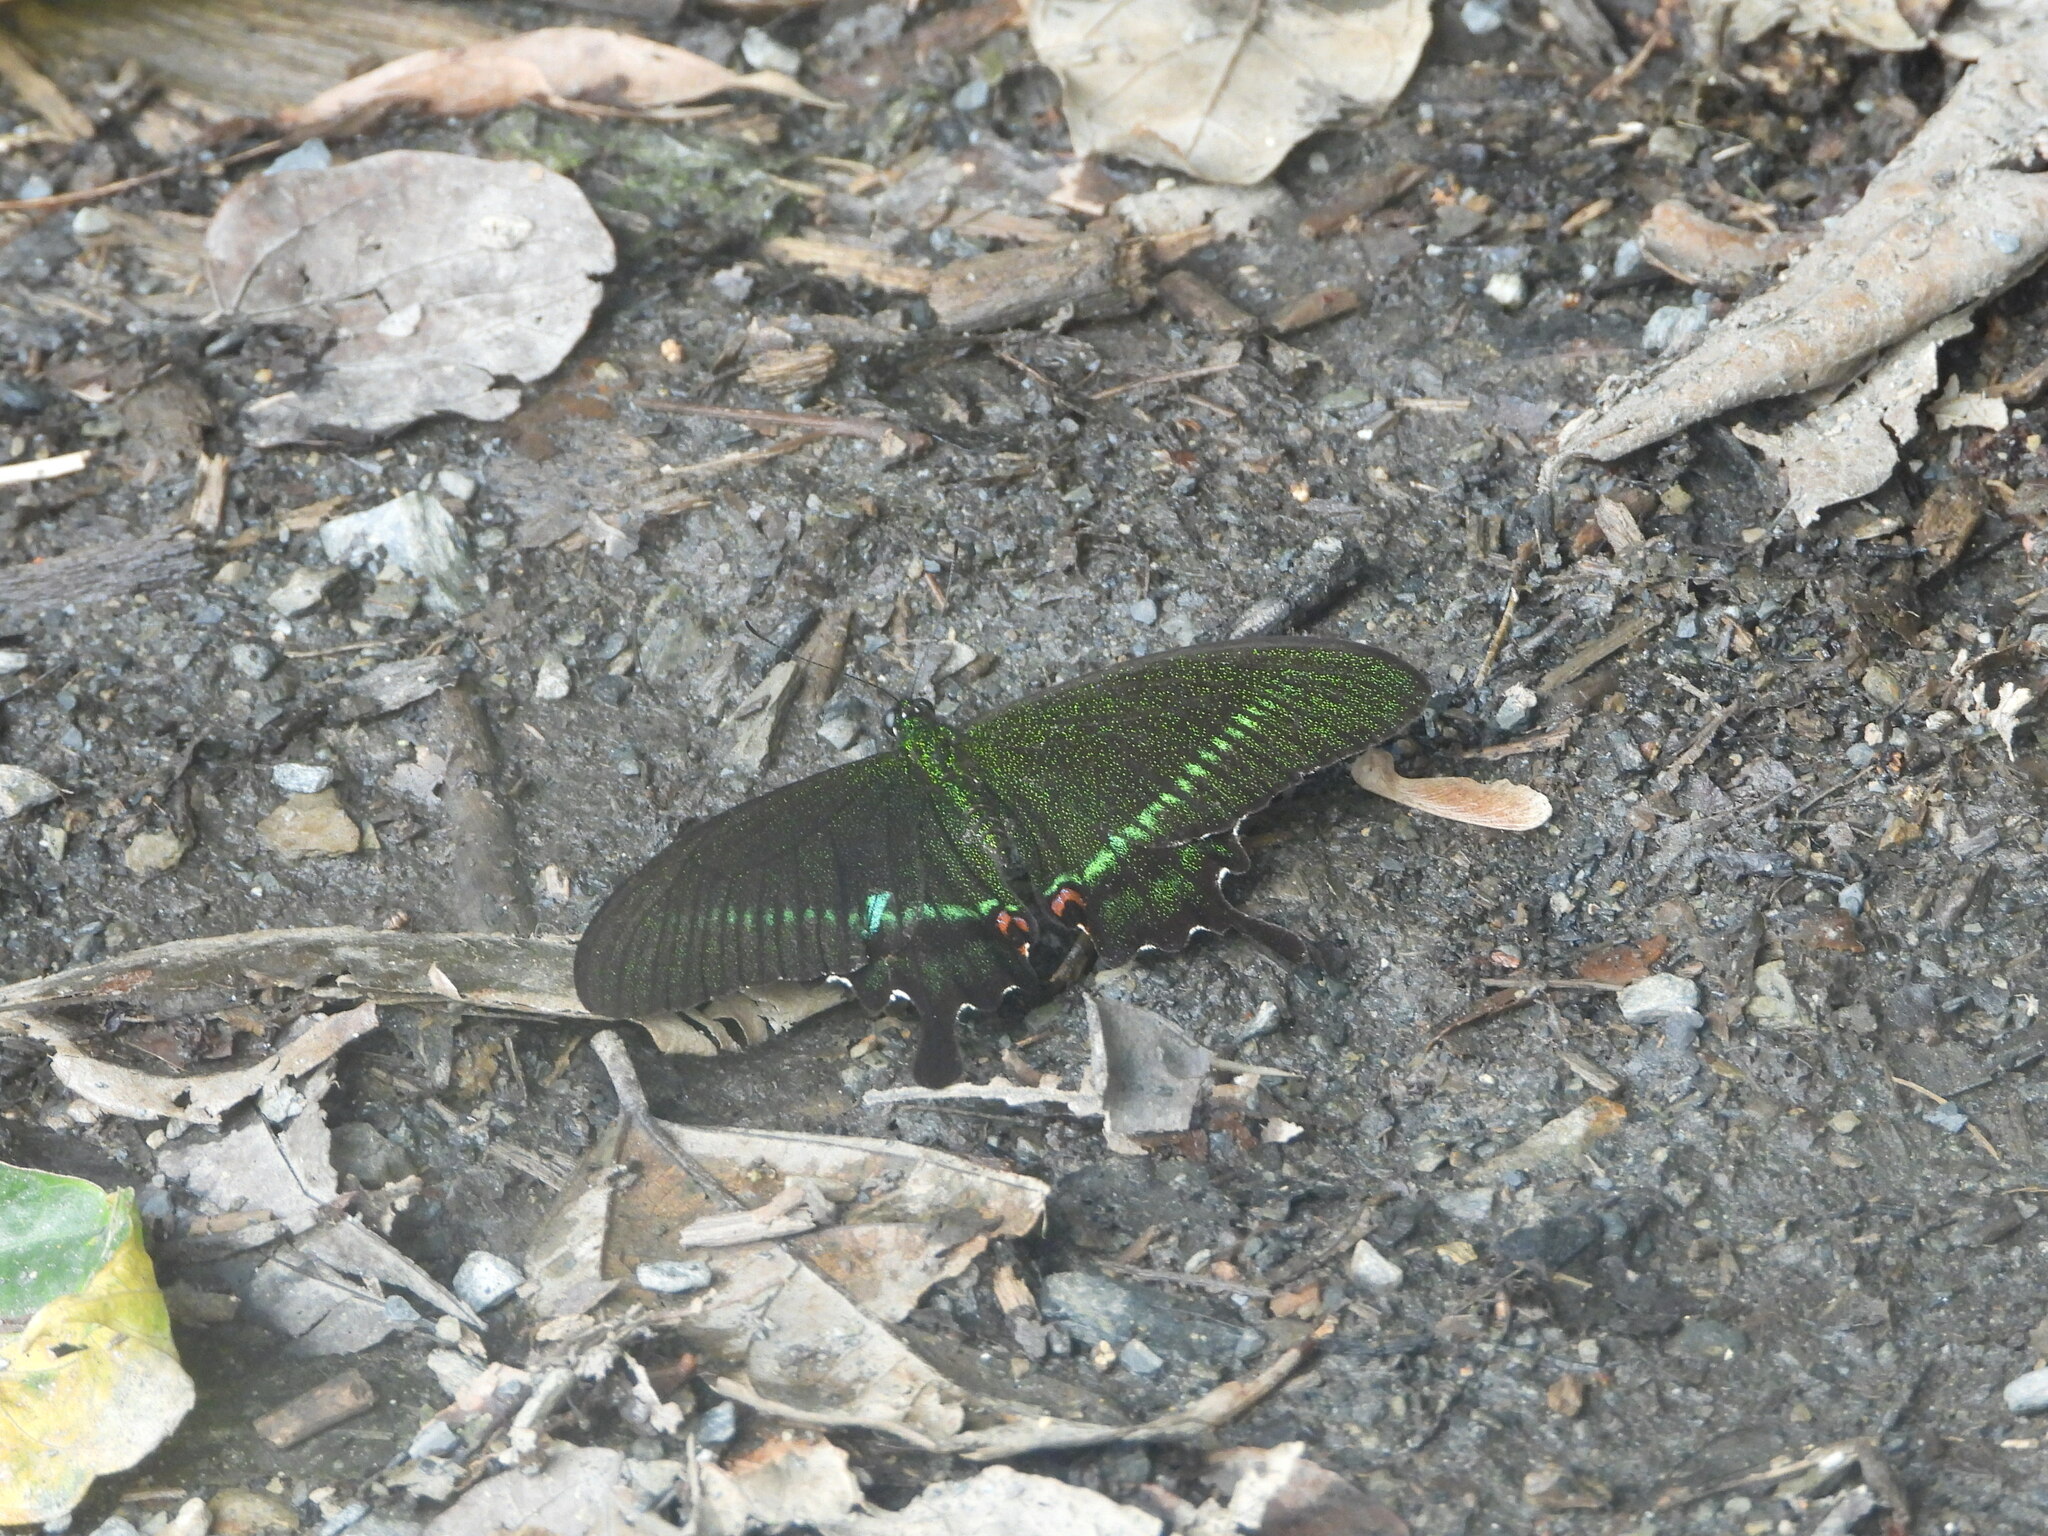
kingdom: Animalia
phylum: Arthropoda
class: Insecta
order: Lepidoptera
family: Papilionidae
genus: Papilio
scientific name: Papilio hermosanus
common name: Taiwanese glazed swallowtail
